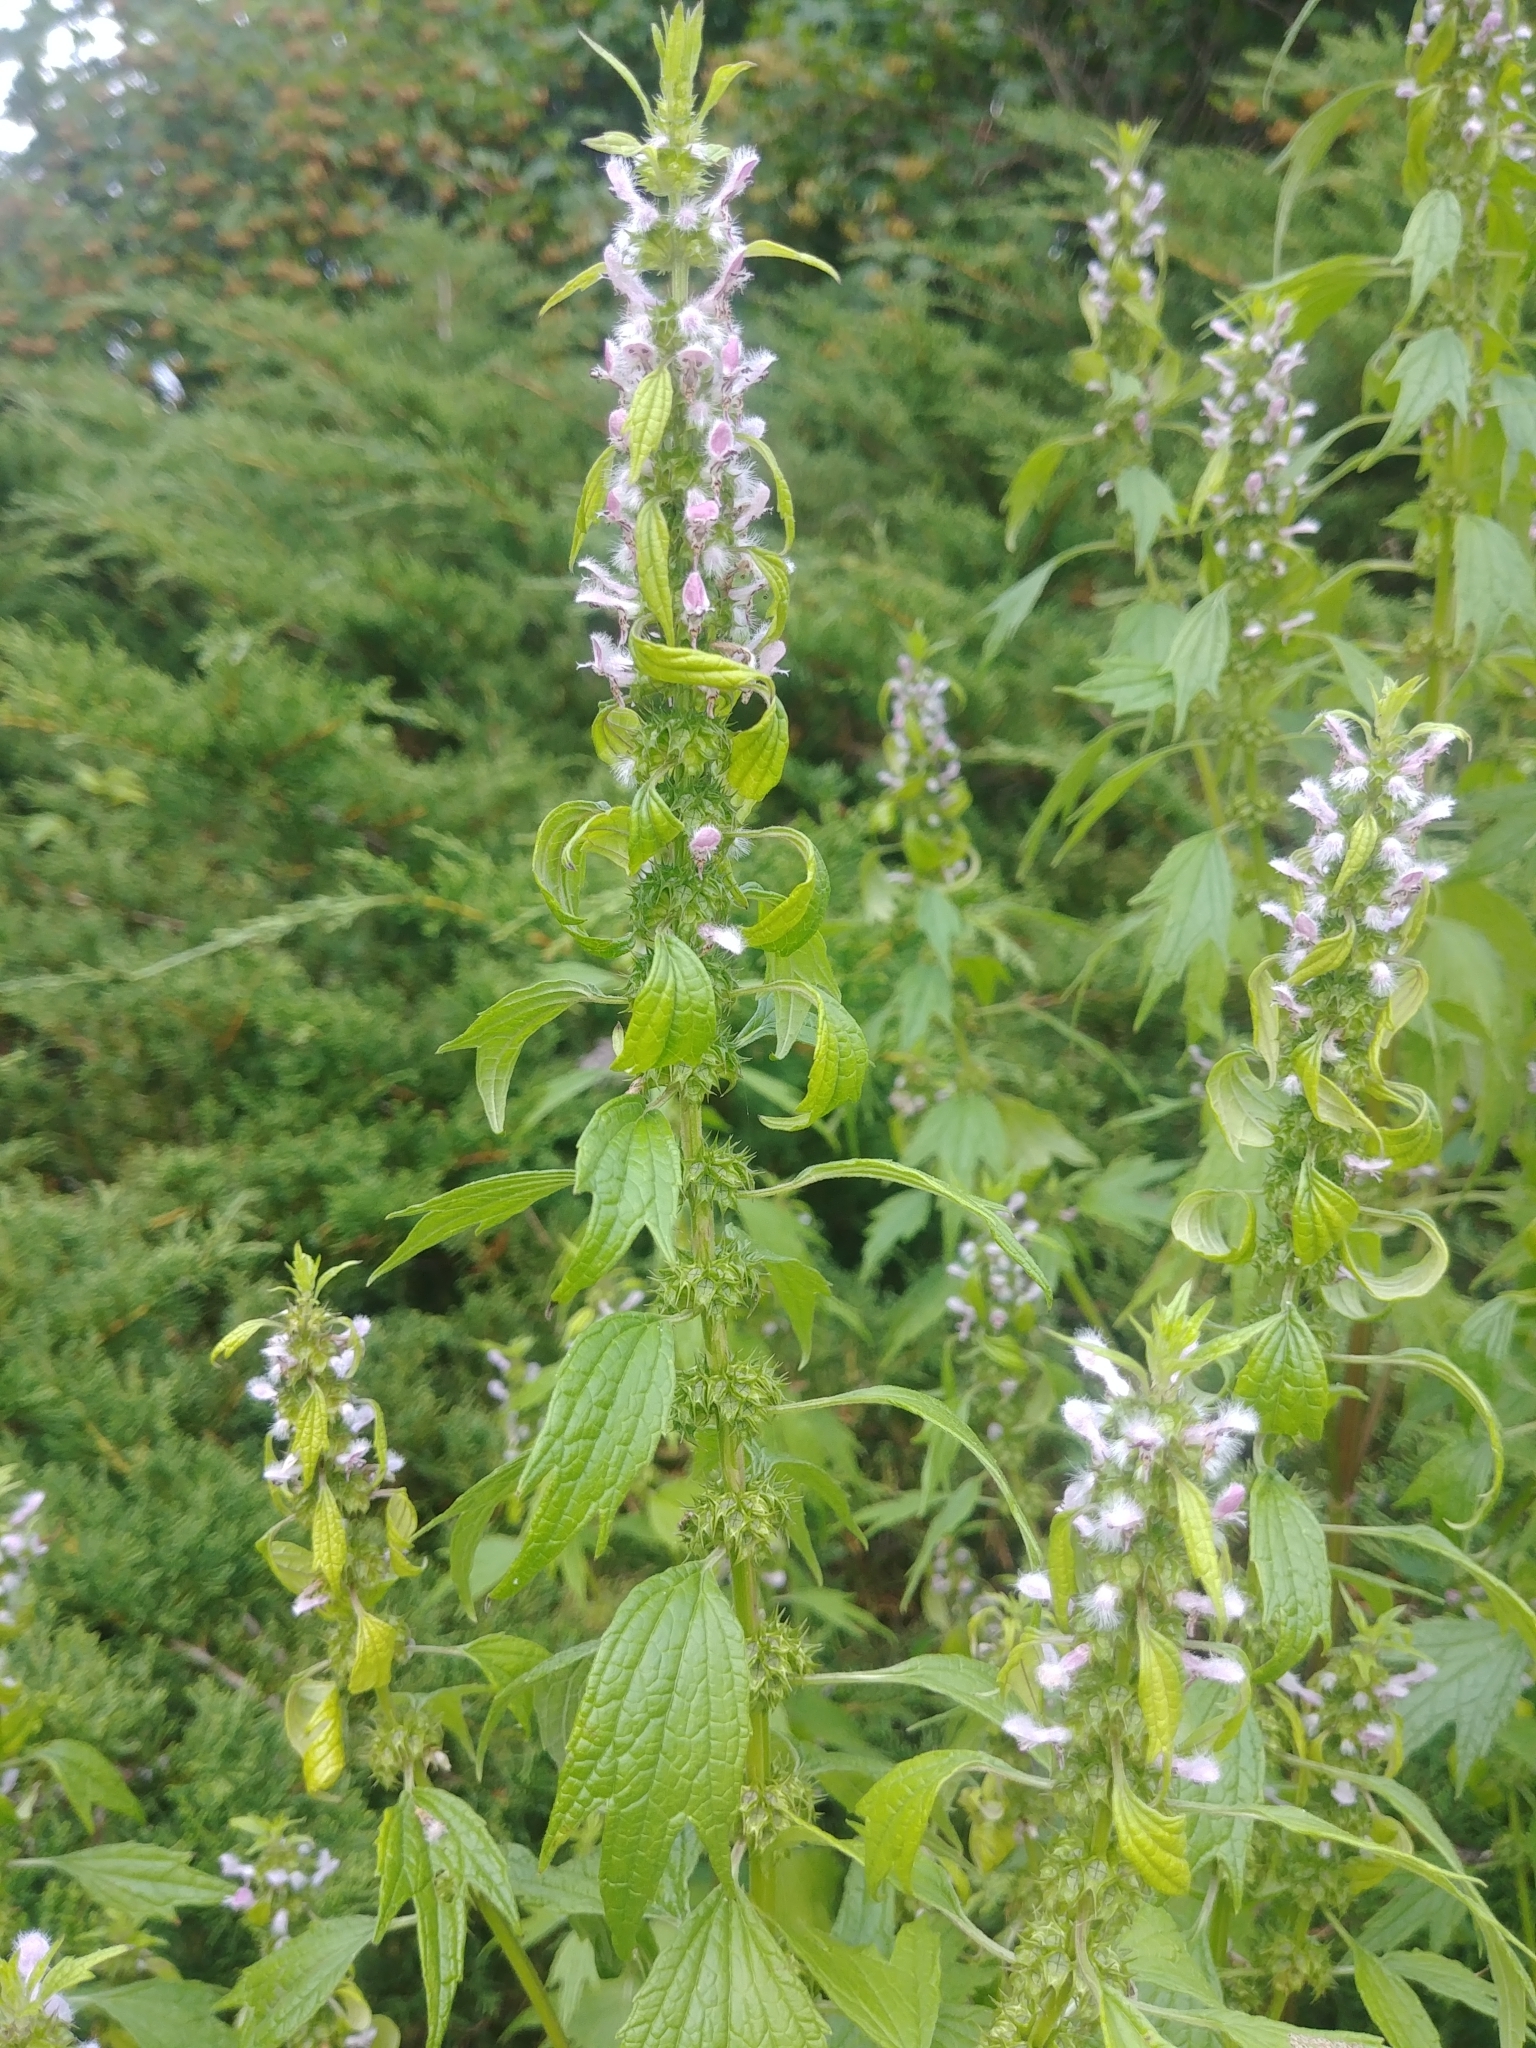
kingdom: Plantae
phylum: Tracheophyta
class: Magnoliopsida
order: Lamiales
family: Lamiaceae
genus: Leonurus
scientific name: Leonurus cardiaca
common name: Motherwort
